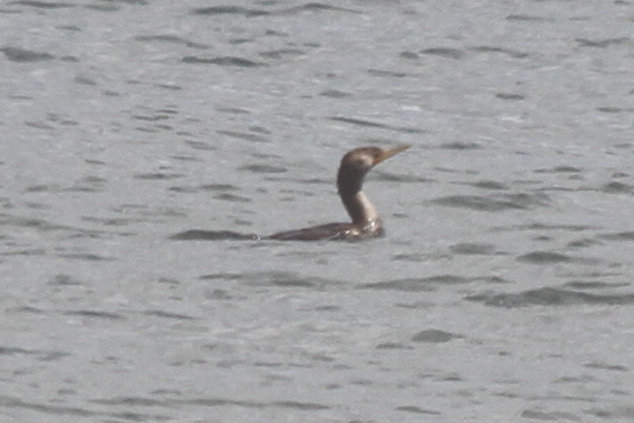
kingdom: Animalia
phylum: Chordata
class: Aves
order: Suliformes
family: Phalacrocoracidae
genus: Phalacrocorax
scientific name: Phalacrocorax auritus
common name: Double-crested cormorant
